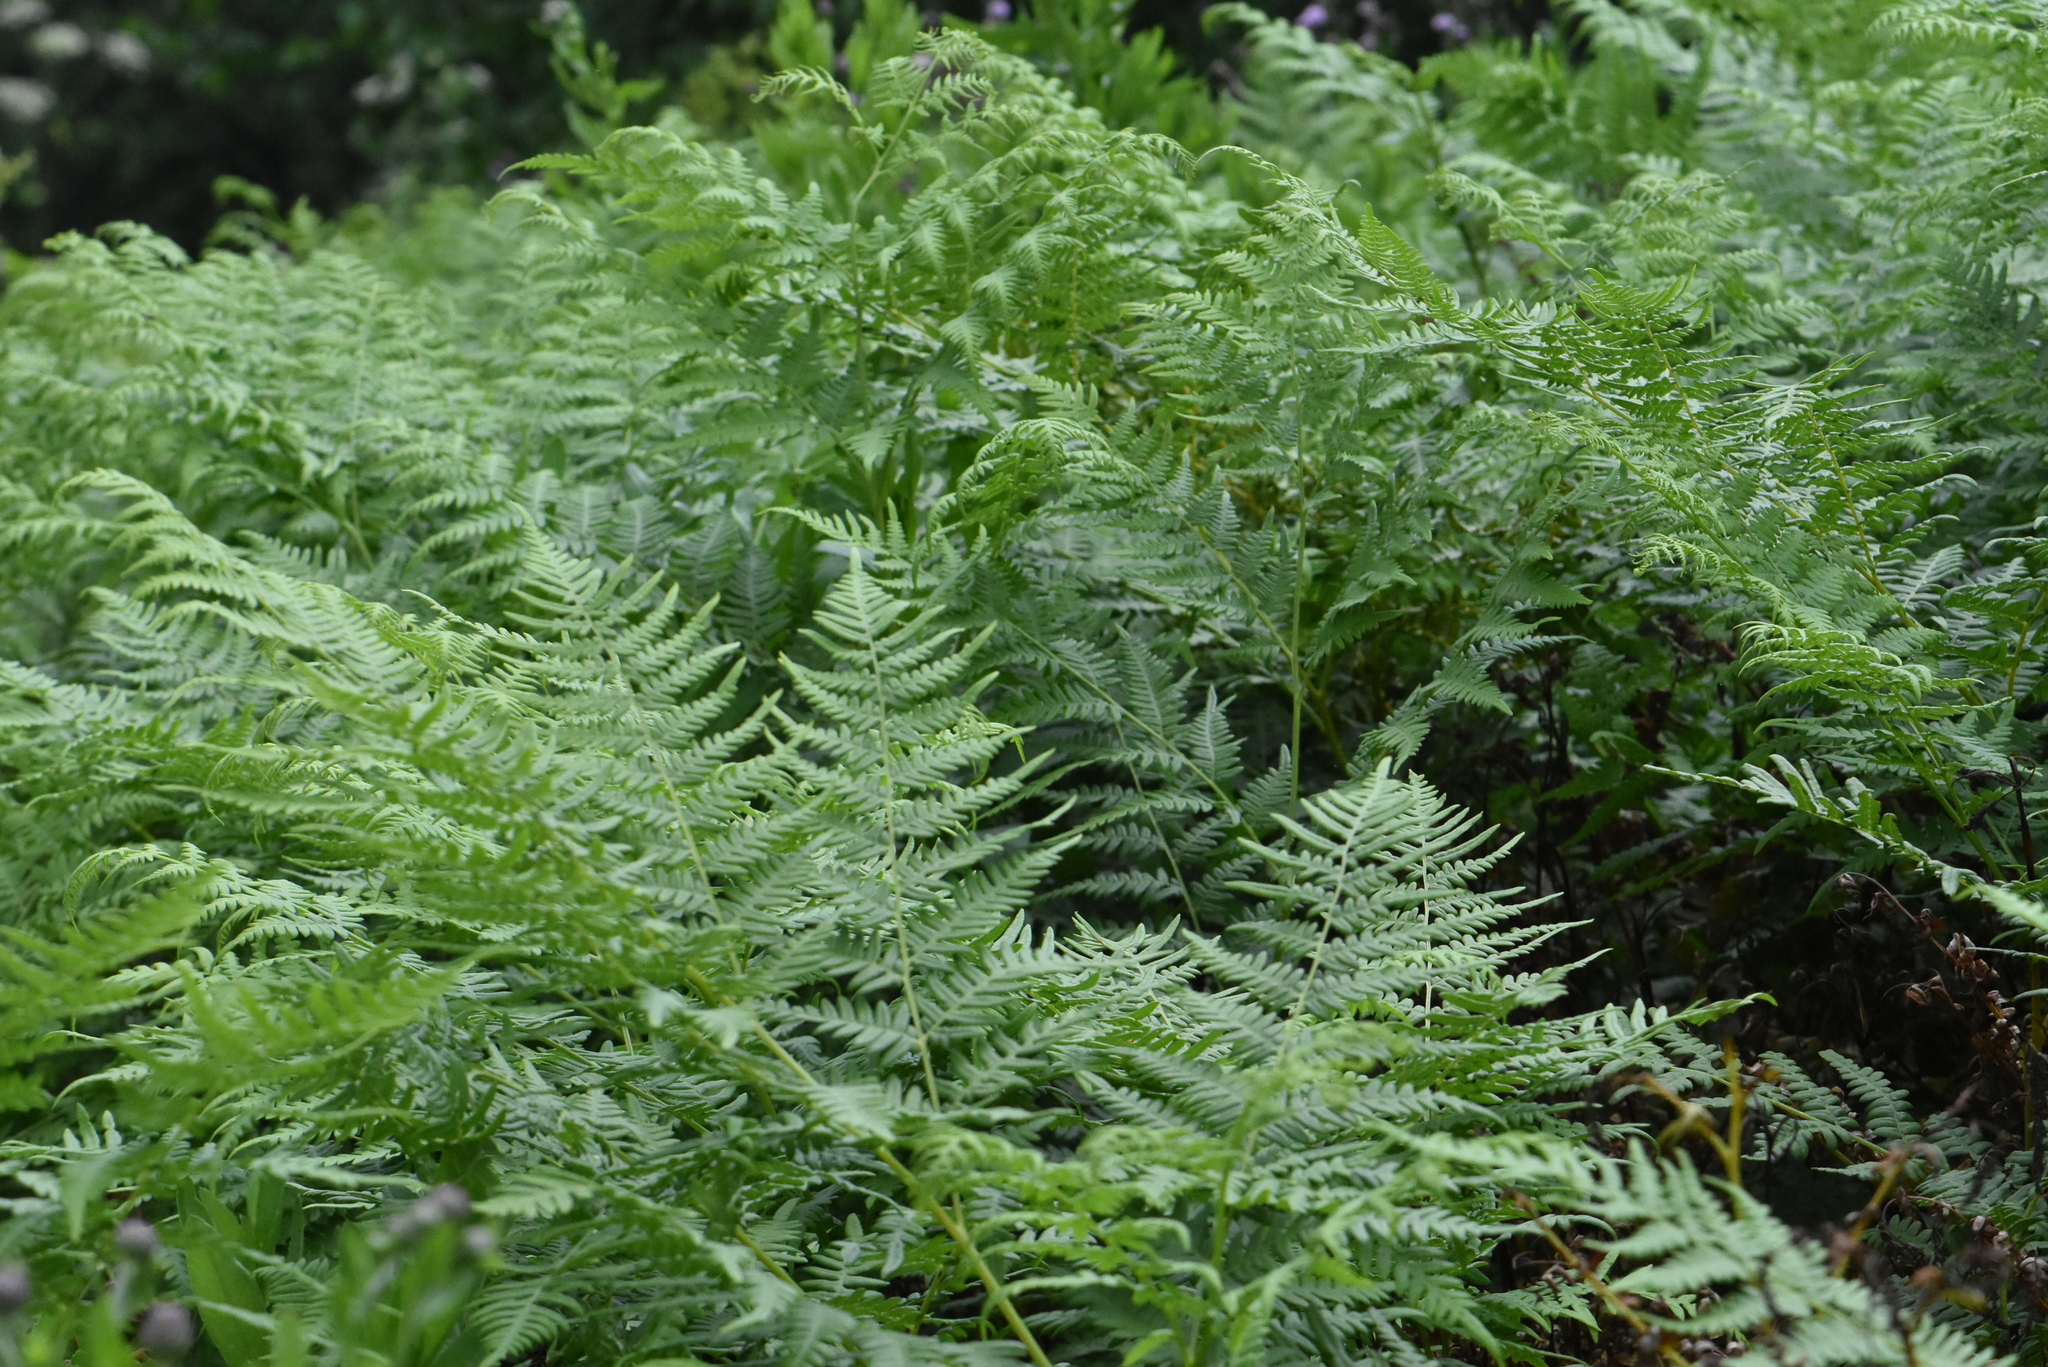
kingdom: Plantae
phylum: Tracheophyta
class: Polypodiopsida
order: Polypodiales
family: Dennstaedtiaceae
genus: Pteridium
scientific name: Pteridium aquilinum
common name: Bracken
